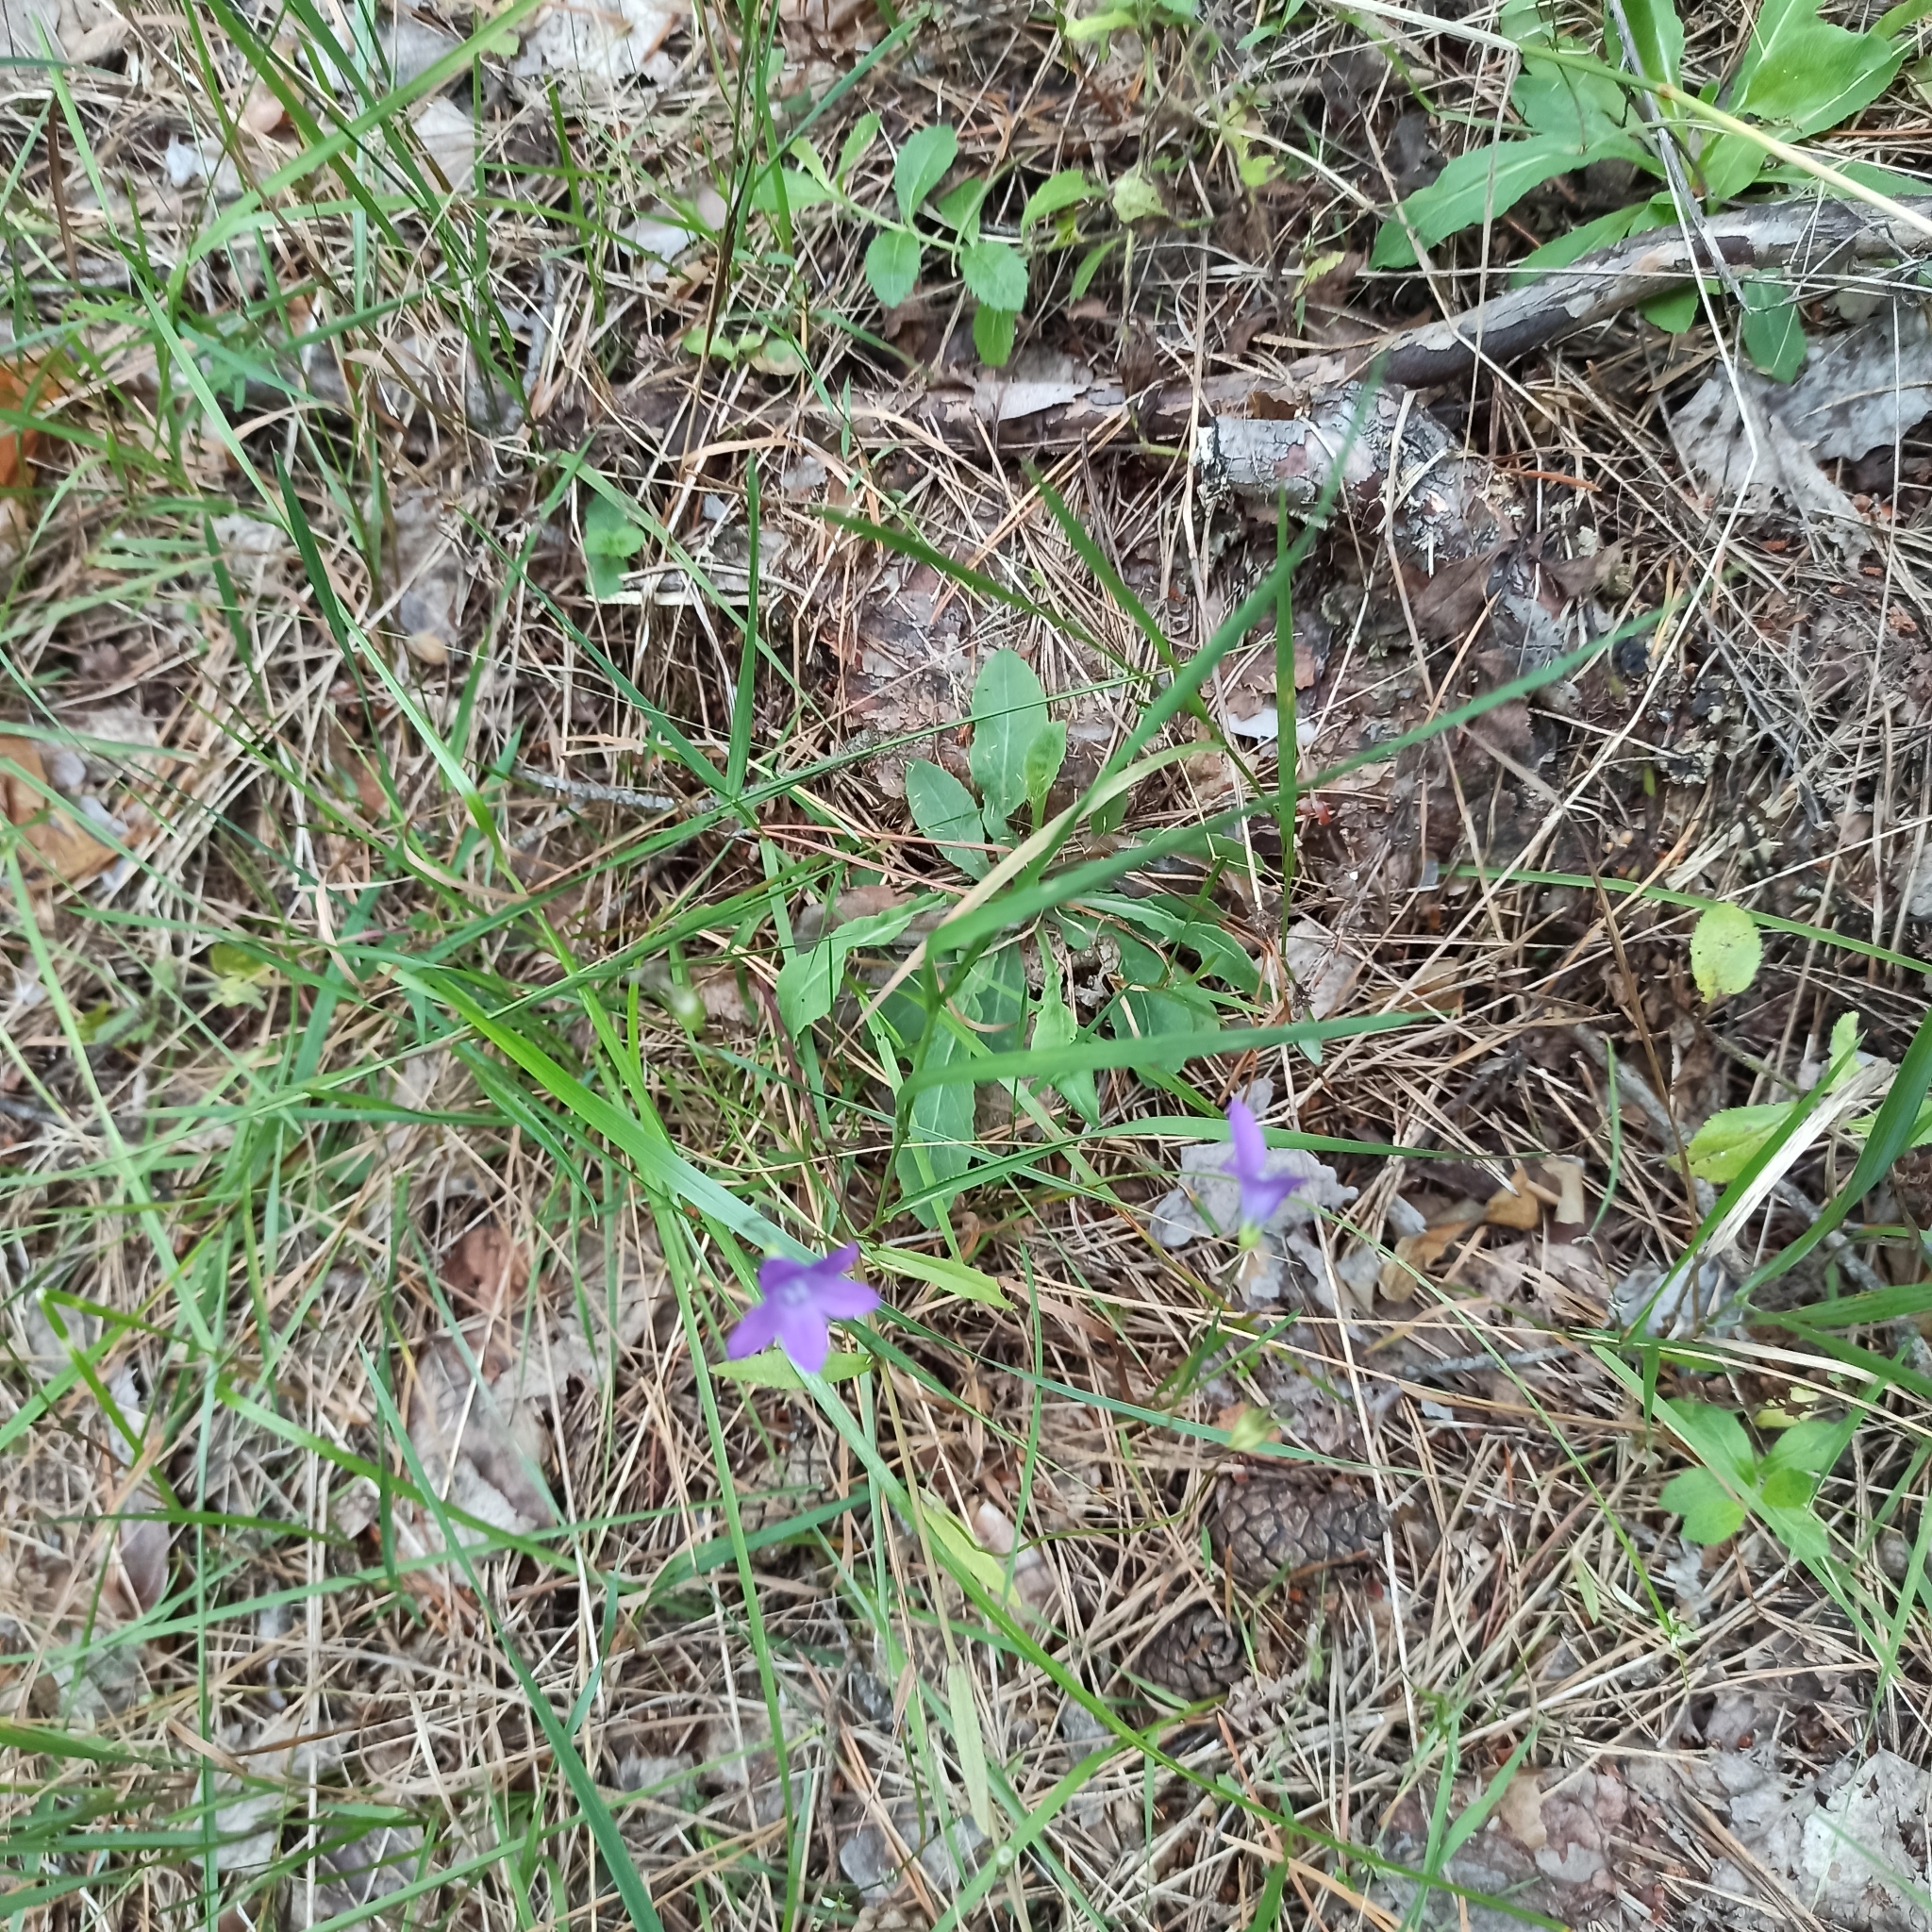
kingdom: Plantae
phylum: Tracheophyta
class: Magnoliopsida
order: Asterales
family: Campanulaceae
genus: Campanula
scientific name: Campanula patula
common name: Spreading bellflower
